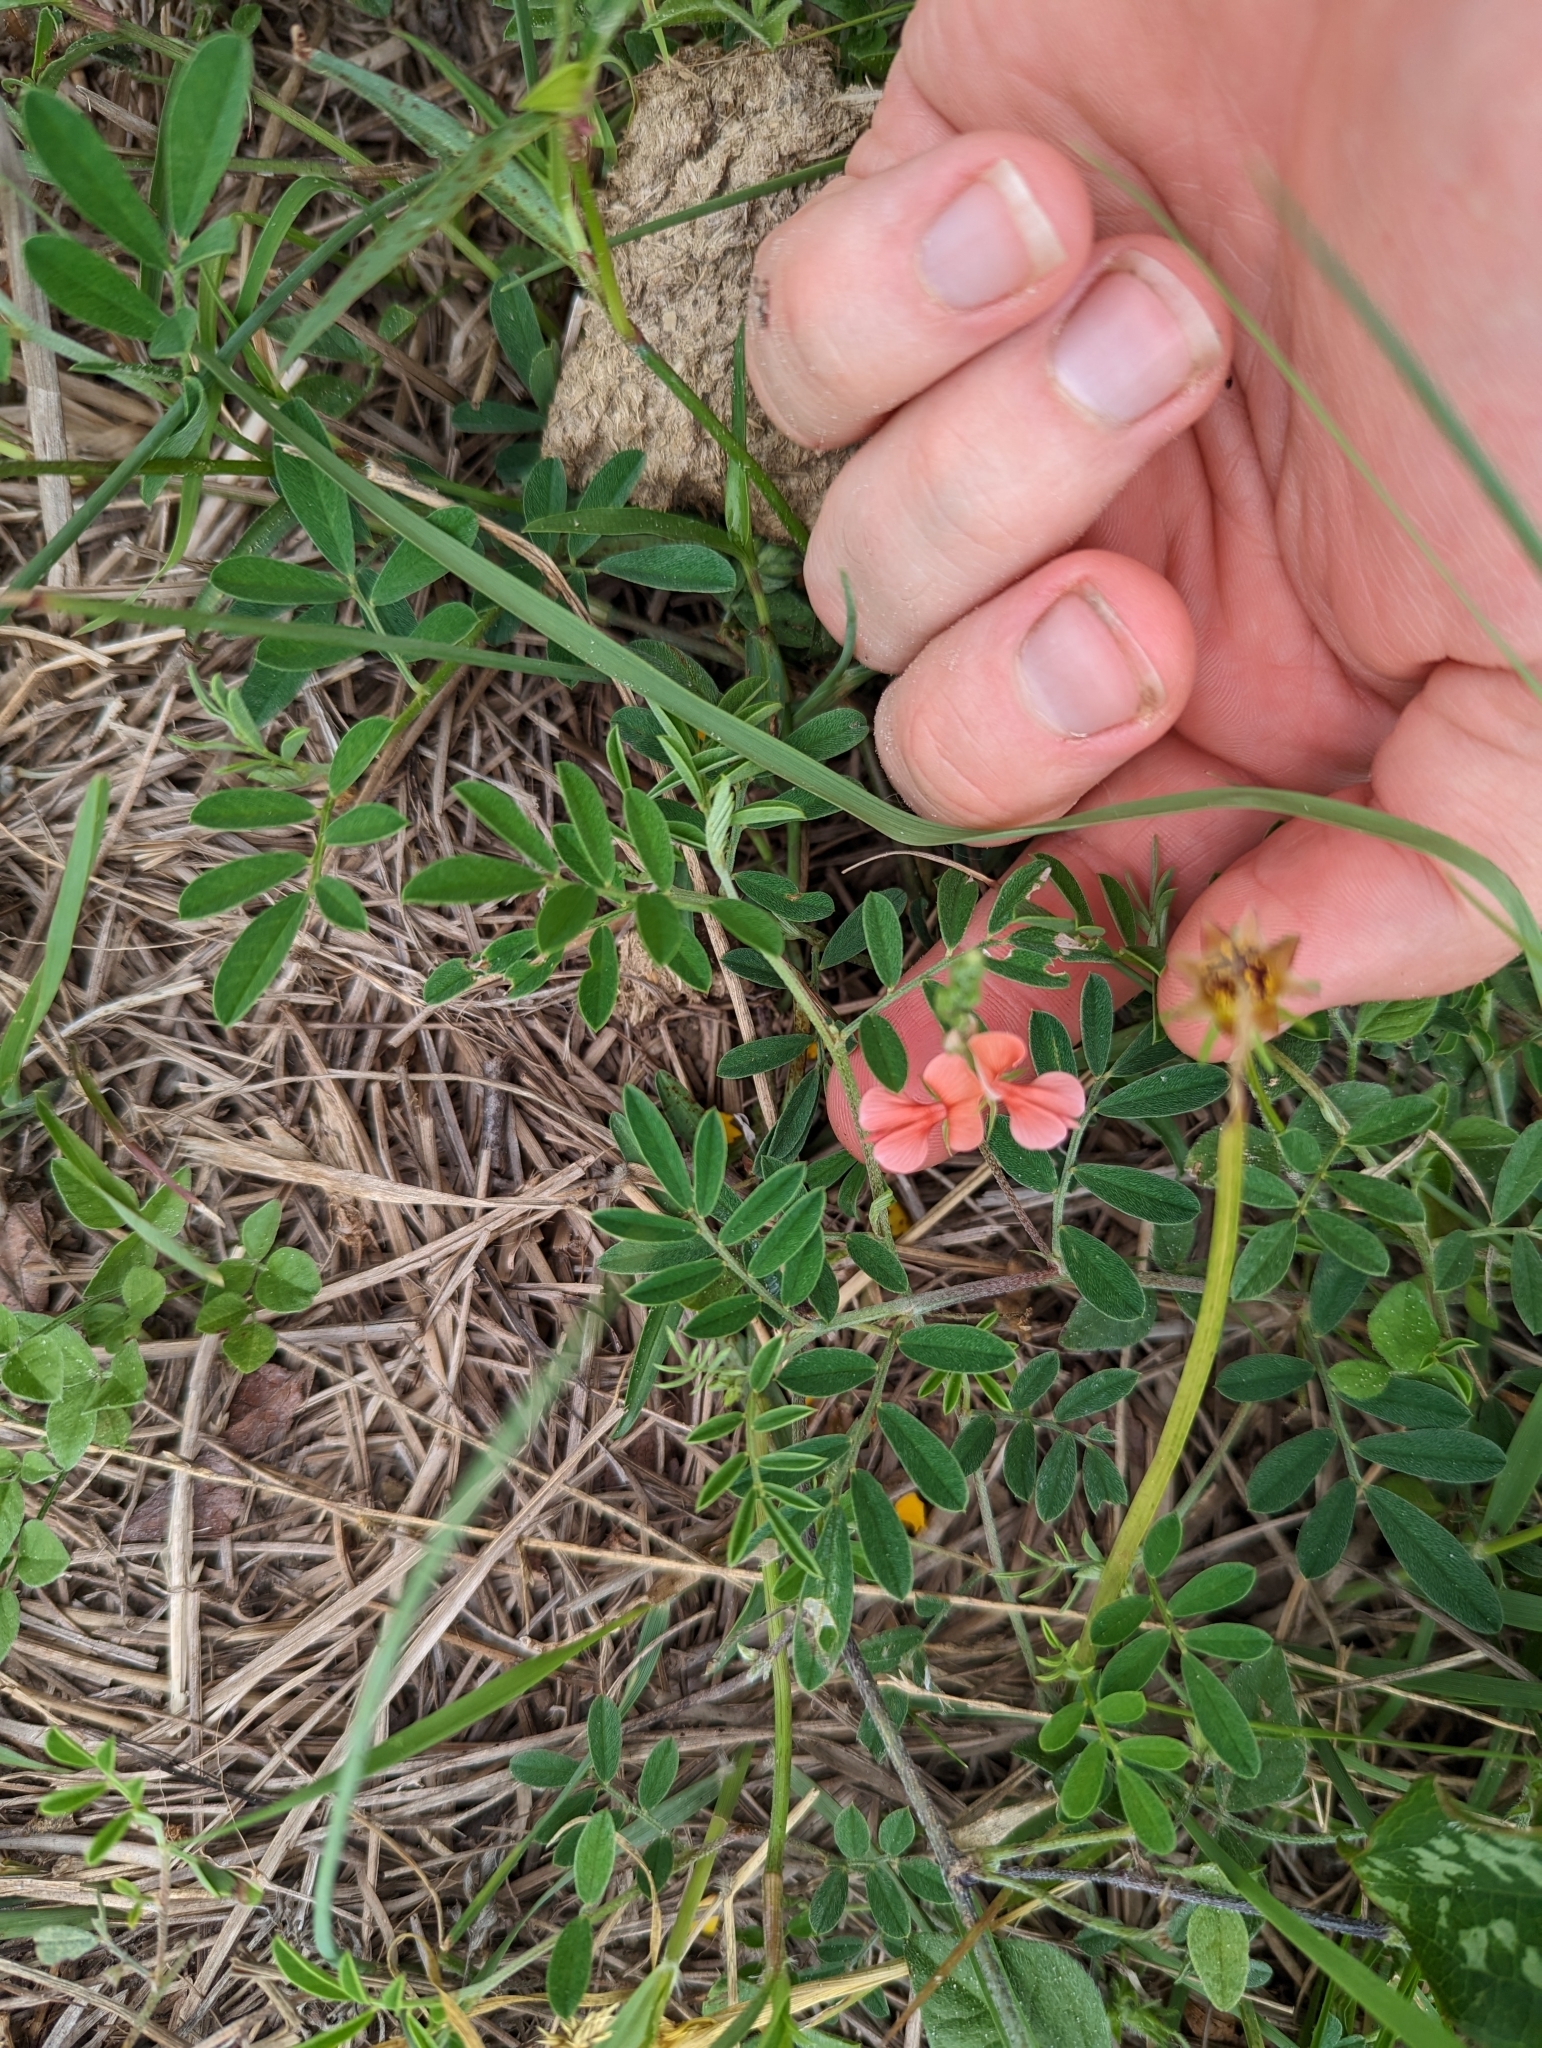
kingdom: Plantae
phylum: Tracheophyta
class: Magnoliopsida
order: Fabales
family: Fabaceae
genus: Indigofera
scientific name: Indigofera miniata
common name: Coast indigo
